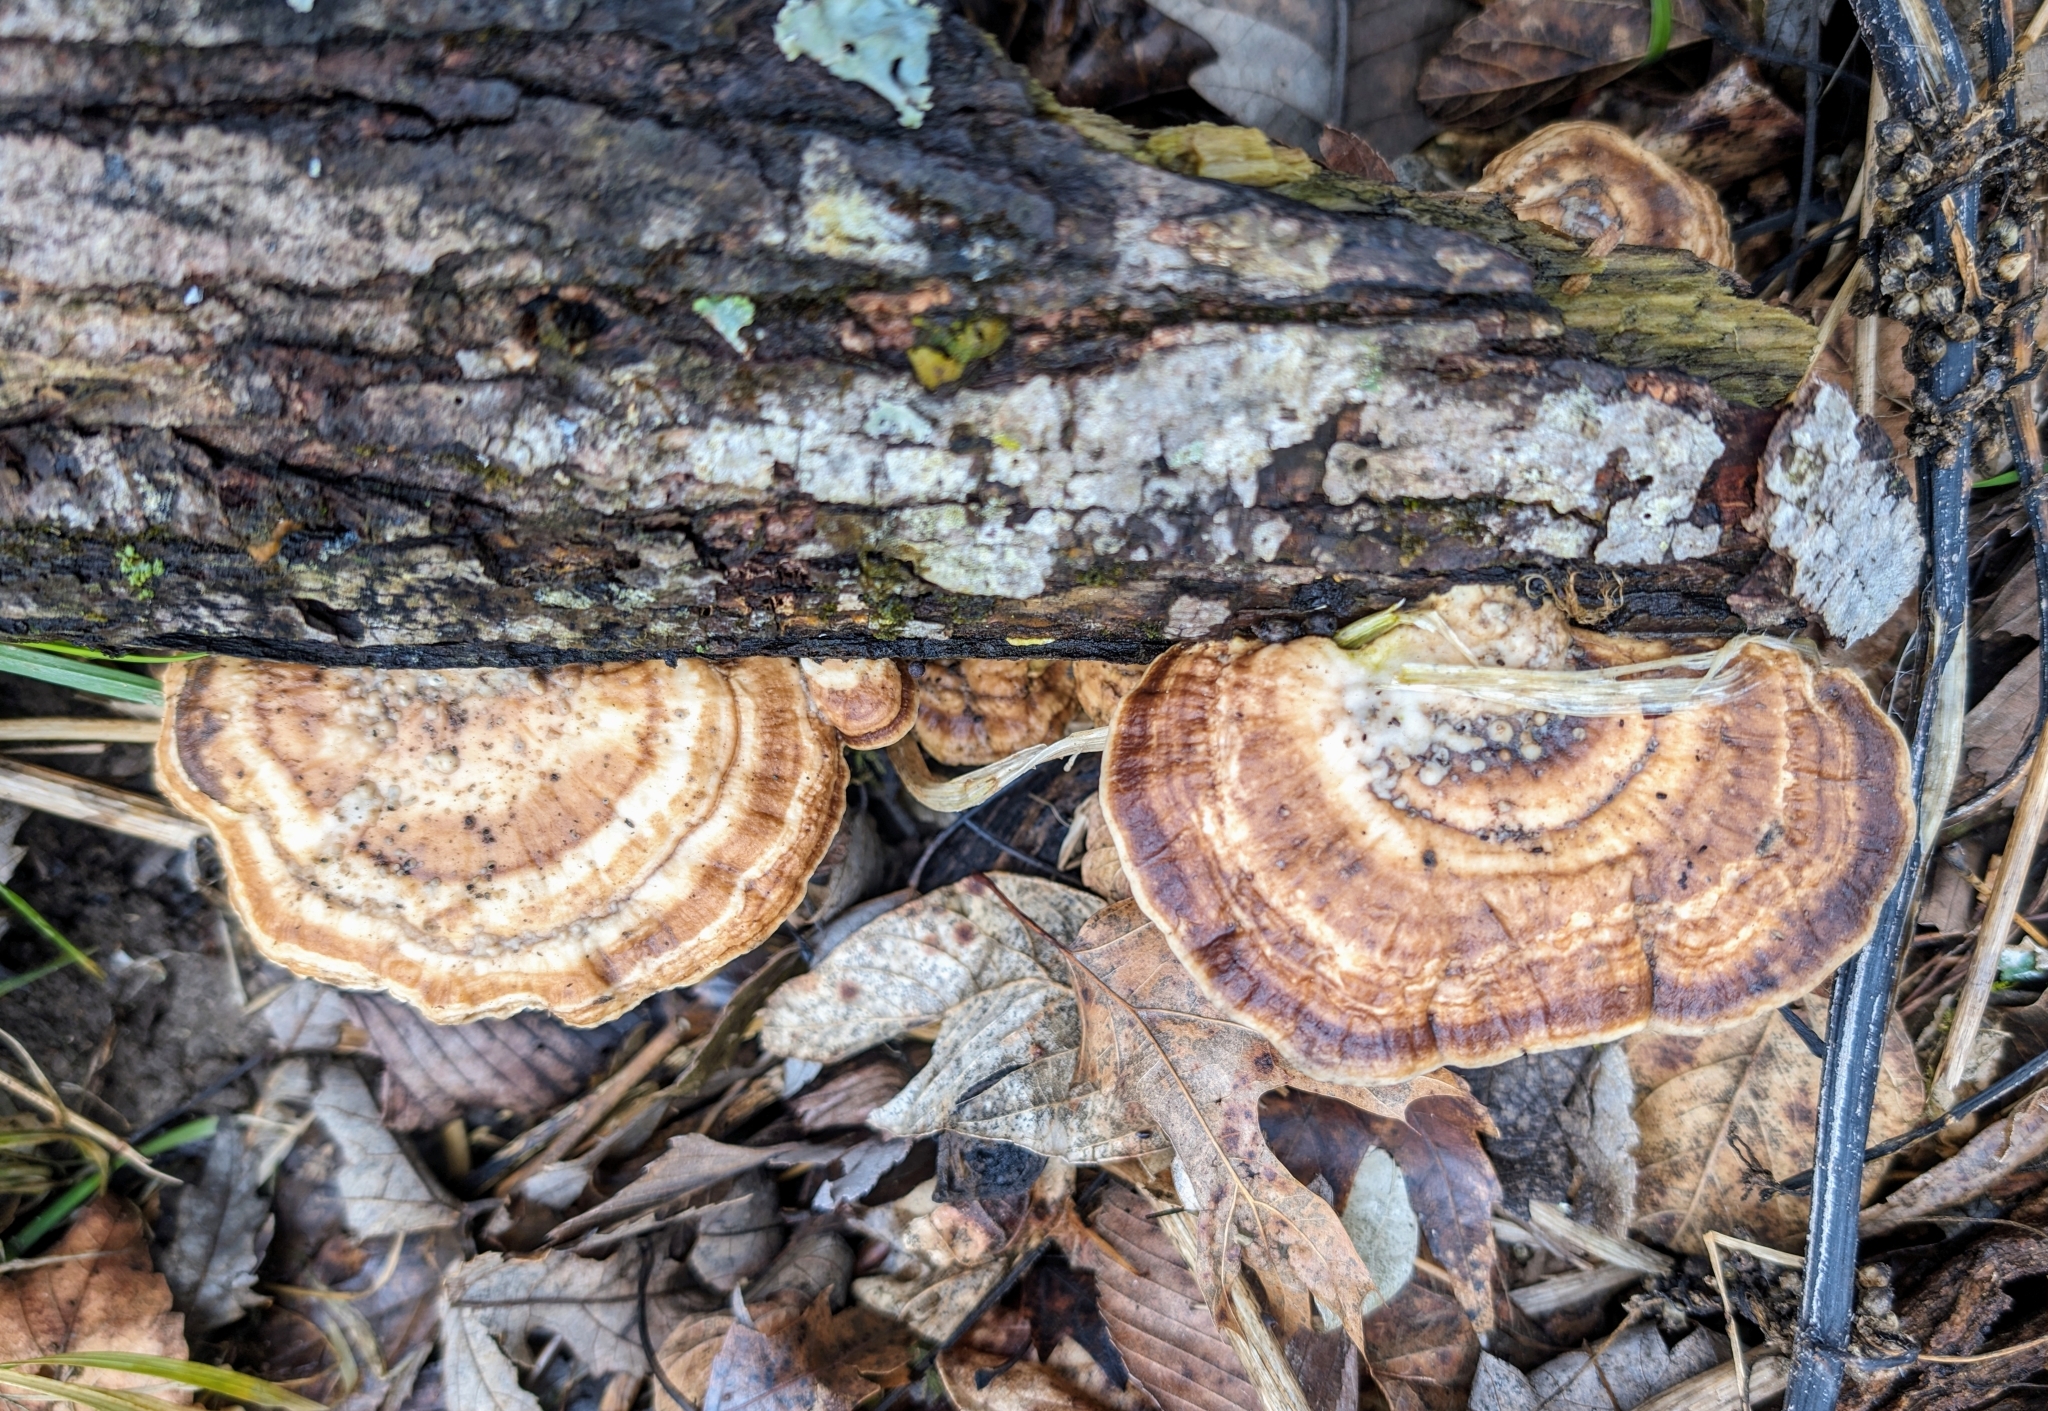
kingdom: Fungi
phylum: Basidiomycota
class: Agaricomycetes
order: Polyporales
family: Polyporaceae
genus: Trametes
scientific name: Trametes lactinea
